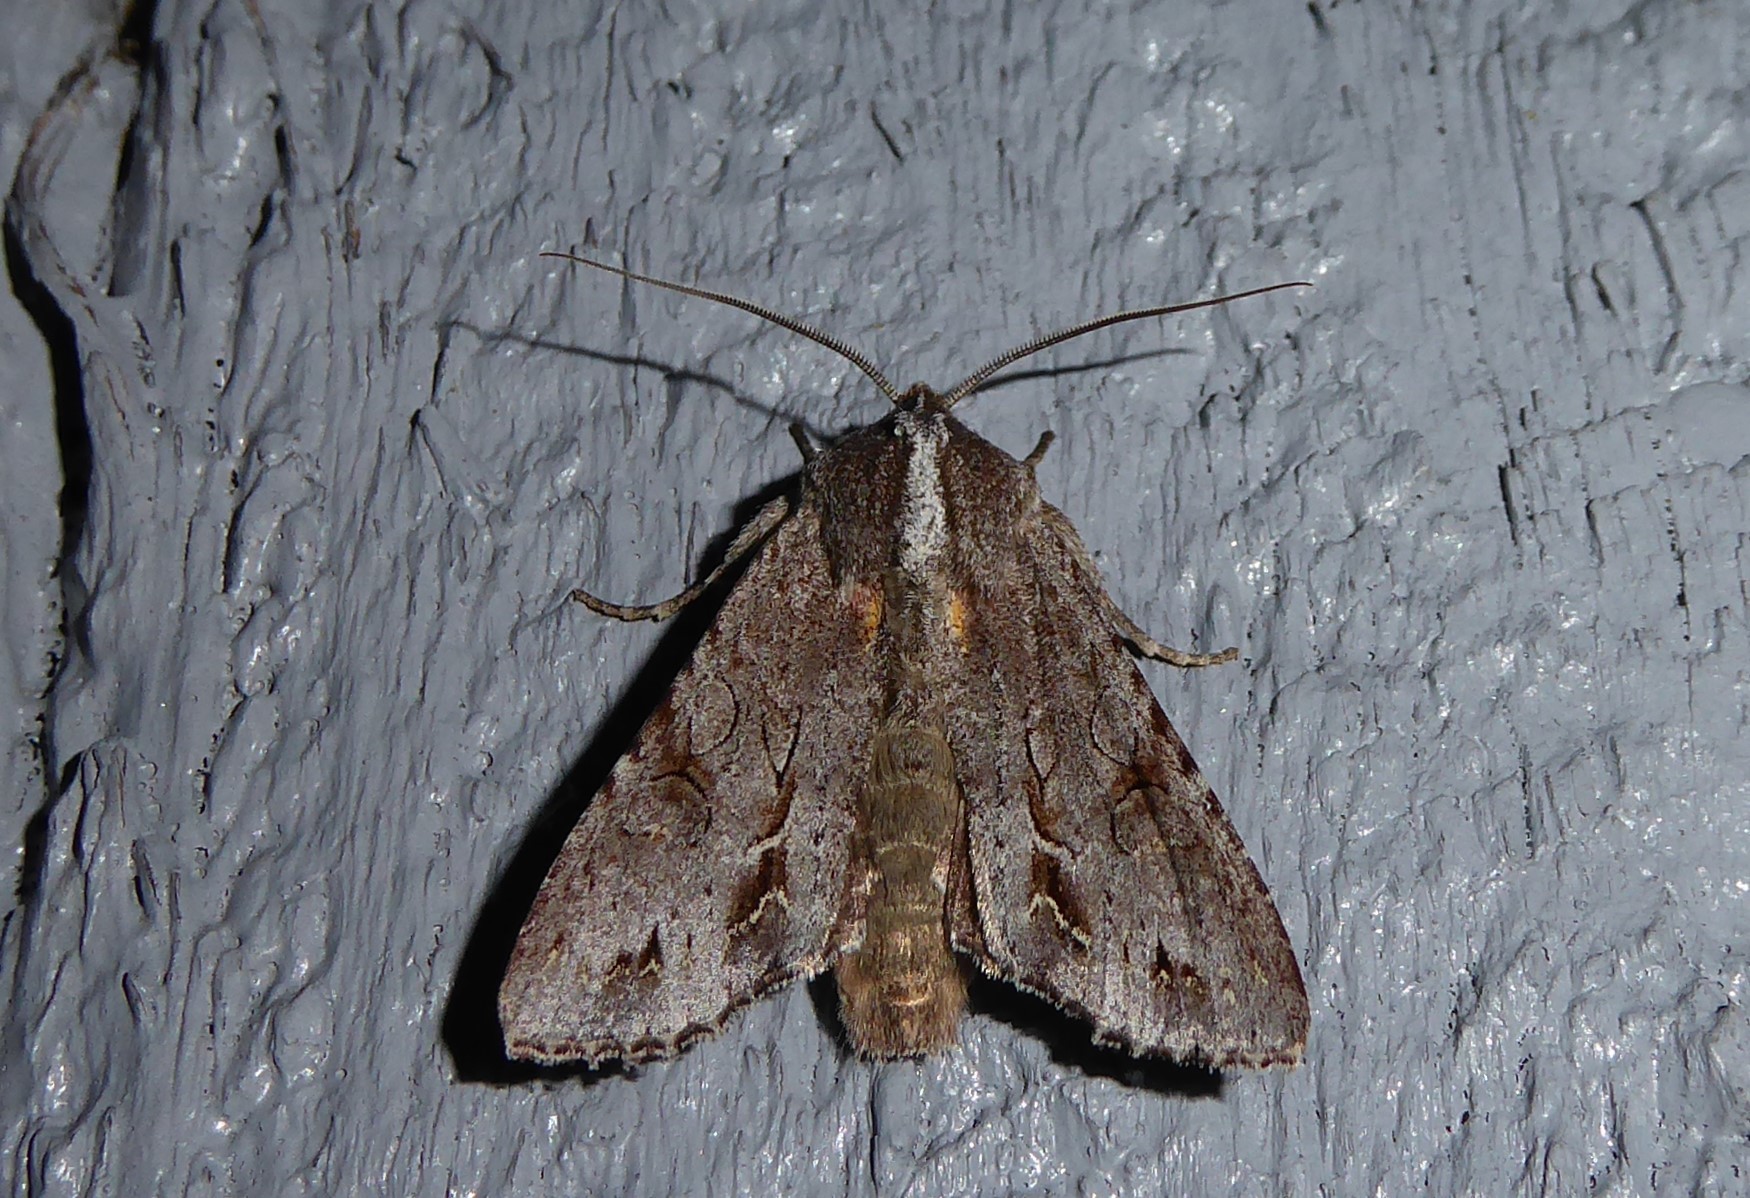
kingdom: Animalia
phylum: Arthropoda
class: Insecta
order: Lepidoptera
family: Noctuidae
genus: Ichneutica
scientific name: Ichneutica
